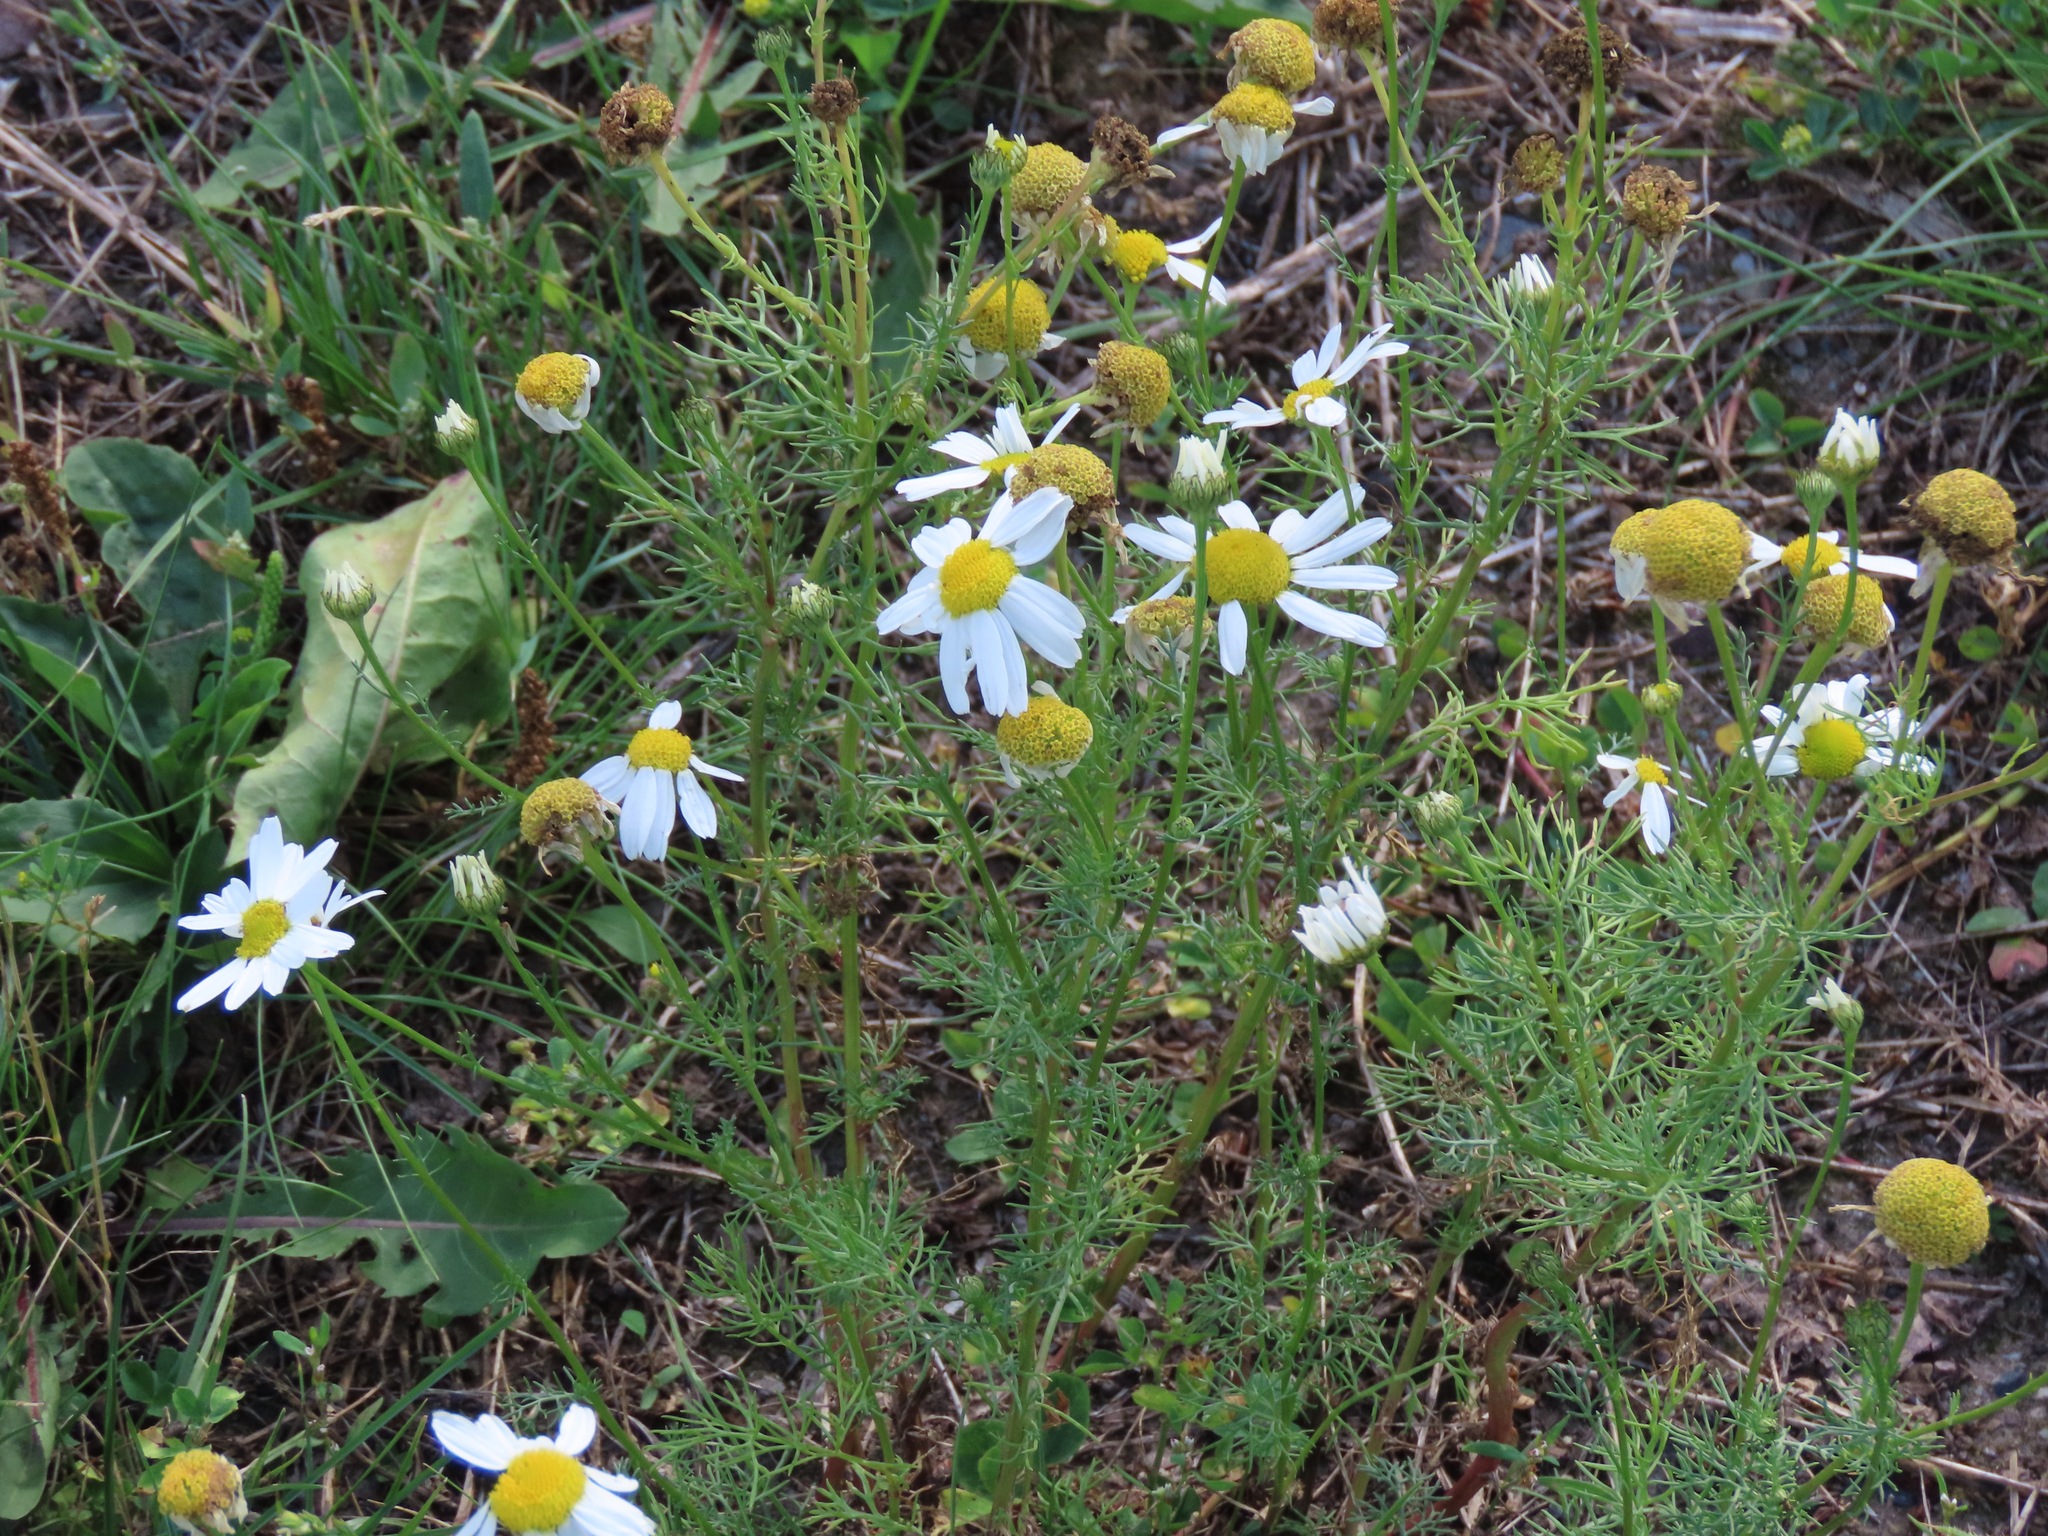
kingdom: Plantae
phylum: Tracheophyta
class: Magnoliopsida
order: Asterales
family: Asteraceae
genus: Tripleurospermum
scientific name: Tripleurospermum inodorum
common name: Scentless mayweed
